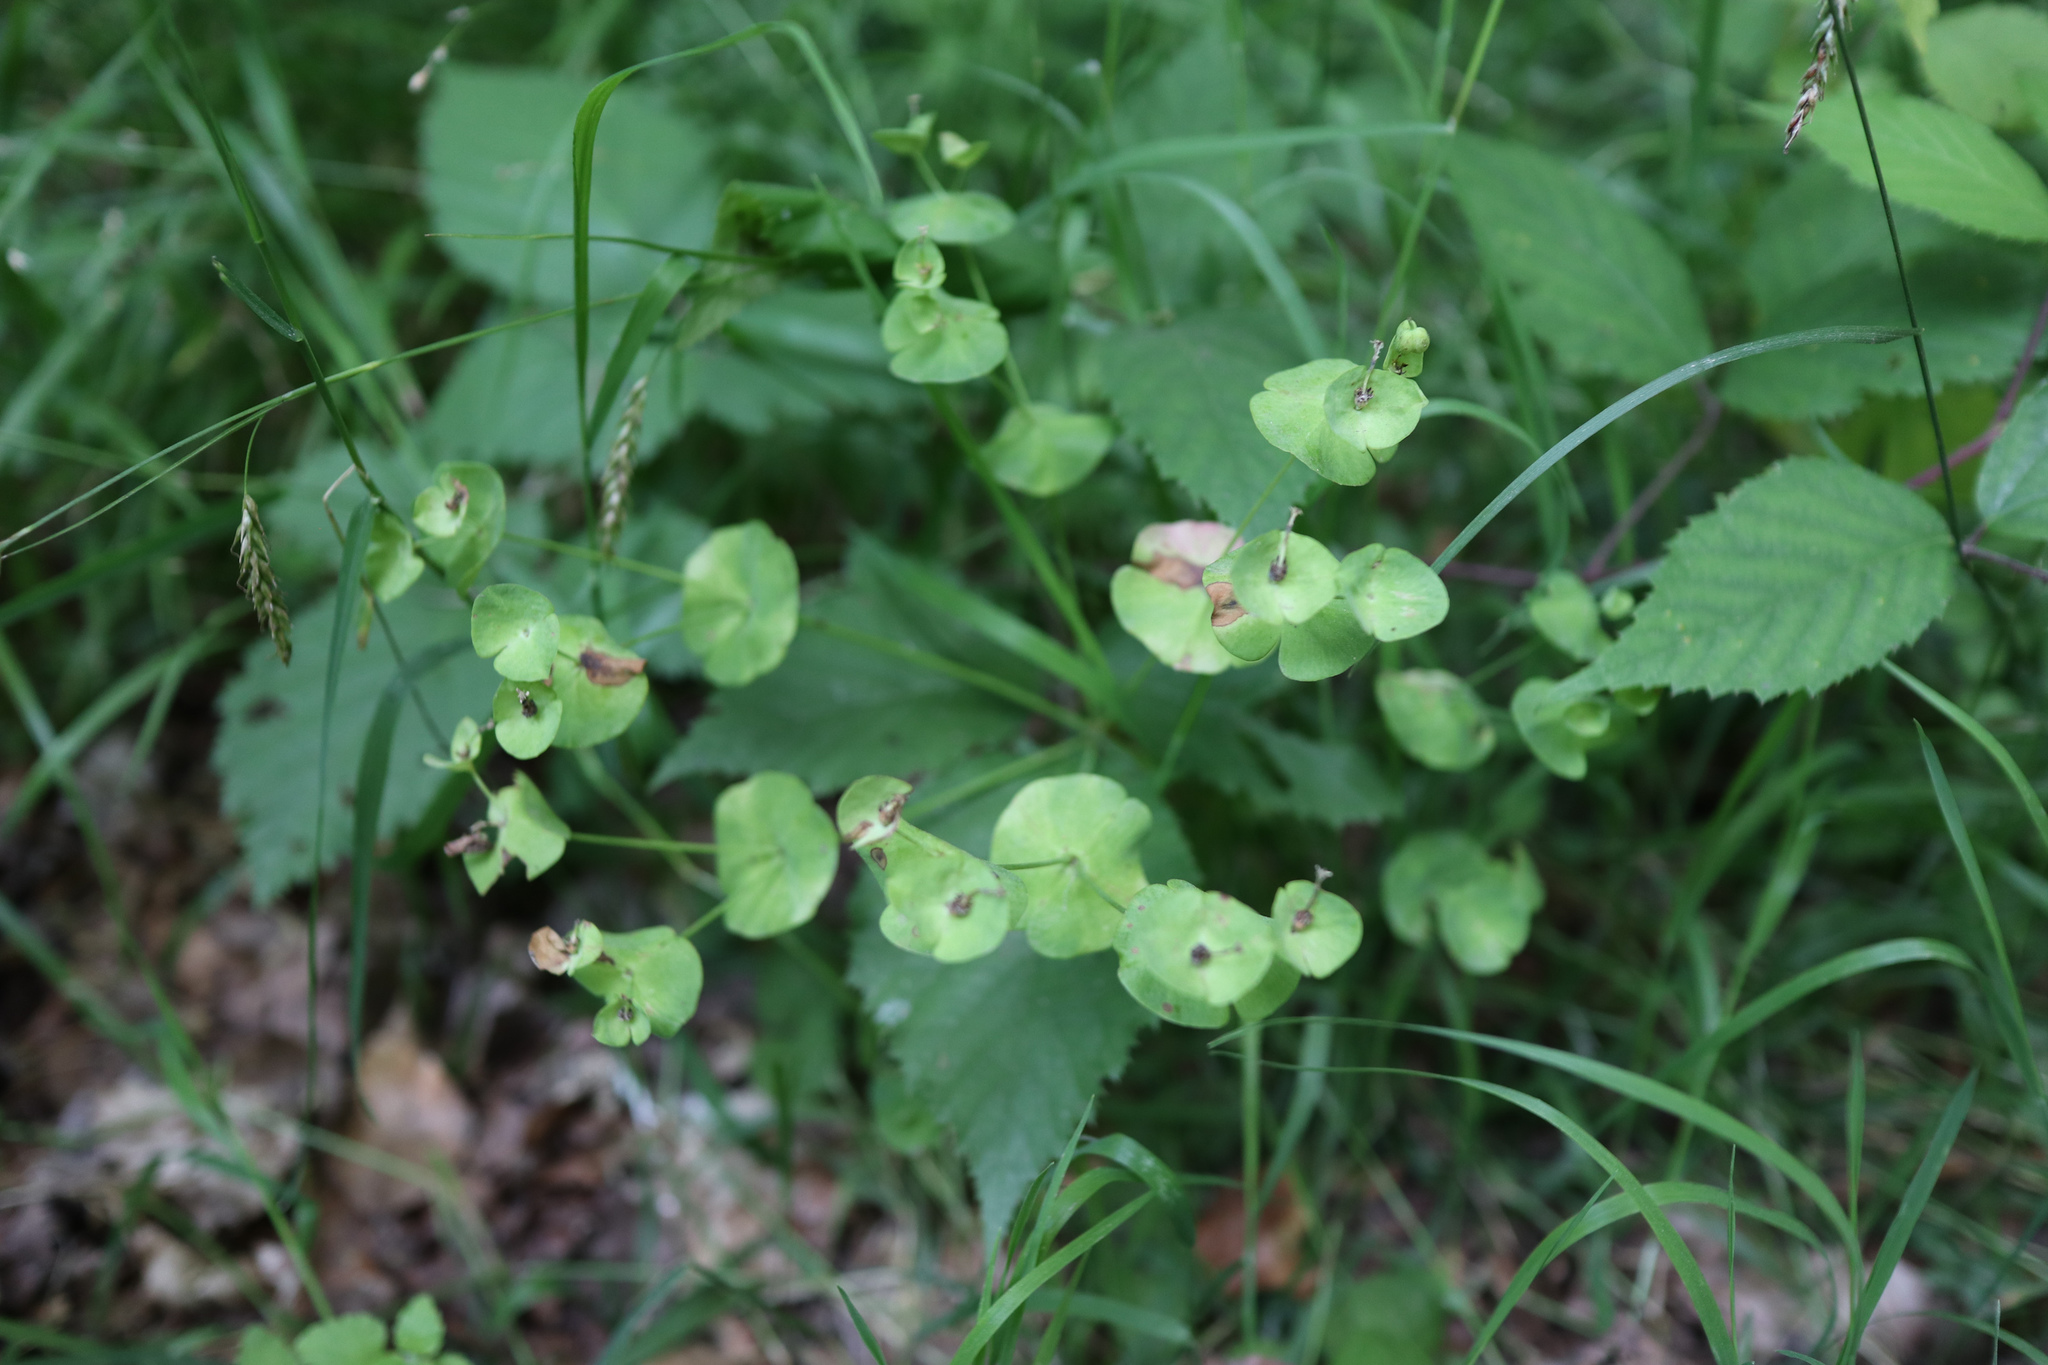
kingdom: Plantae
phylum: Tracheophyta
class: Magnoliopsida
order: Malpighiales
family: Euphorbiaceae
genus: Euphorbia
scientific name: Euphorbia amygdaloides
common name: Wood spurge
